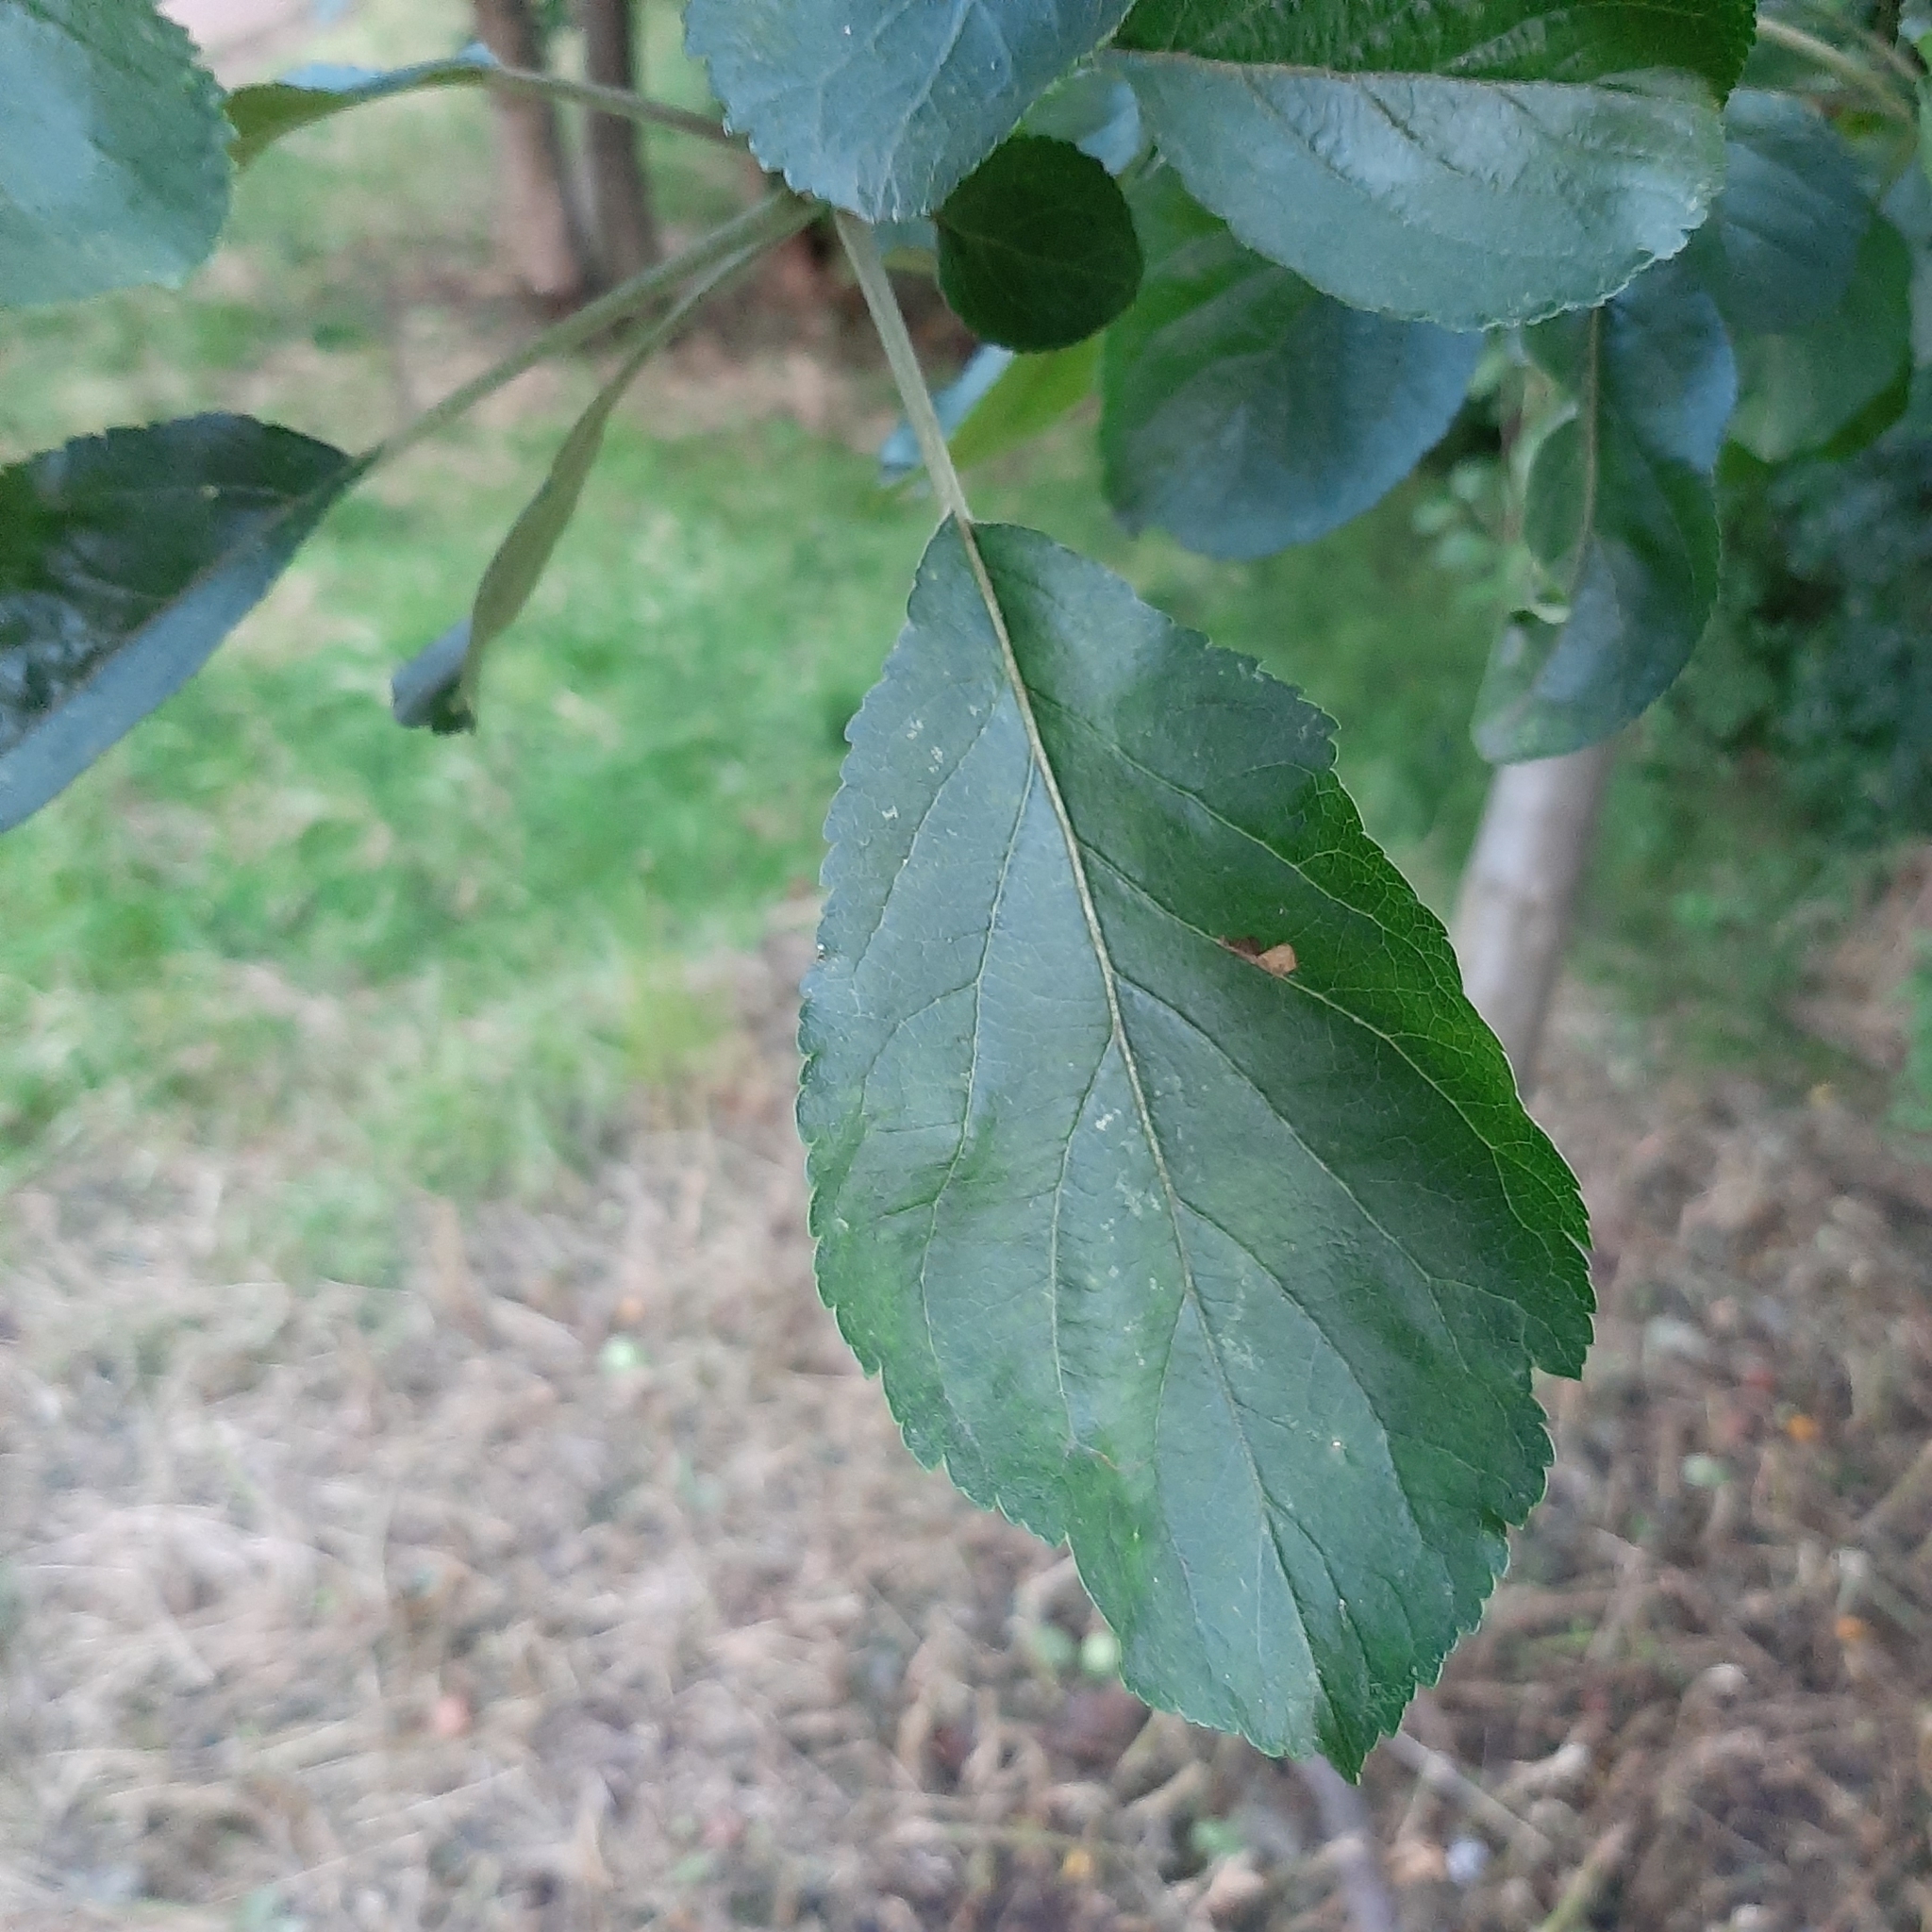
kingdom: Plantae
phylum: Tracheophyta
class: Magnoliopsida
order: Rosales
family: Rosaceae
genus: Malus
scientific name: Malus sylvestris
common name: Crab apple
